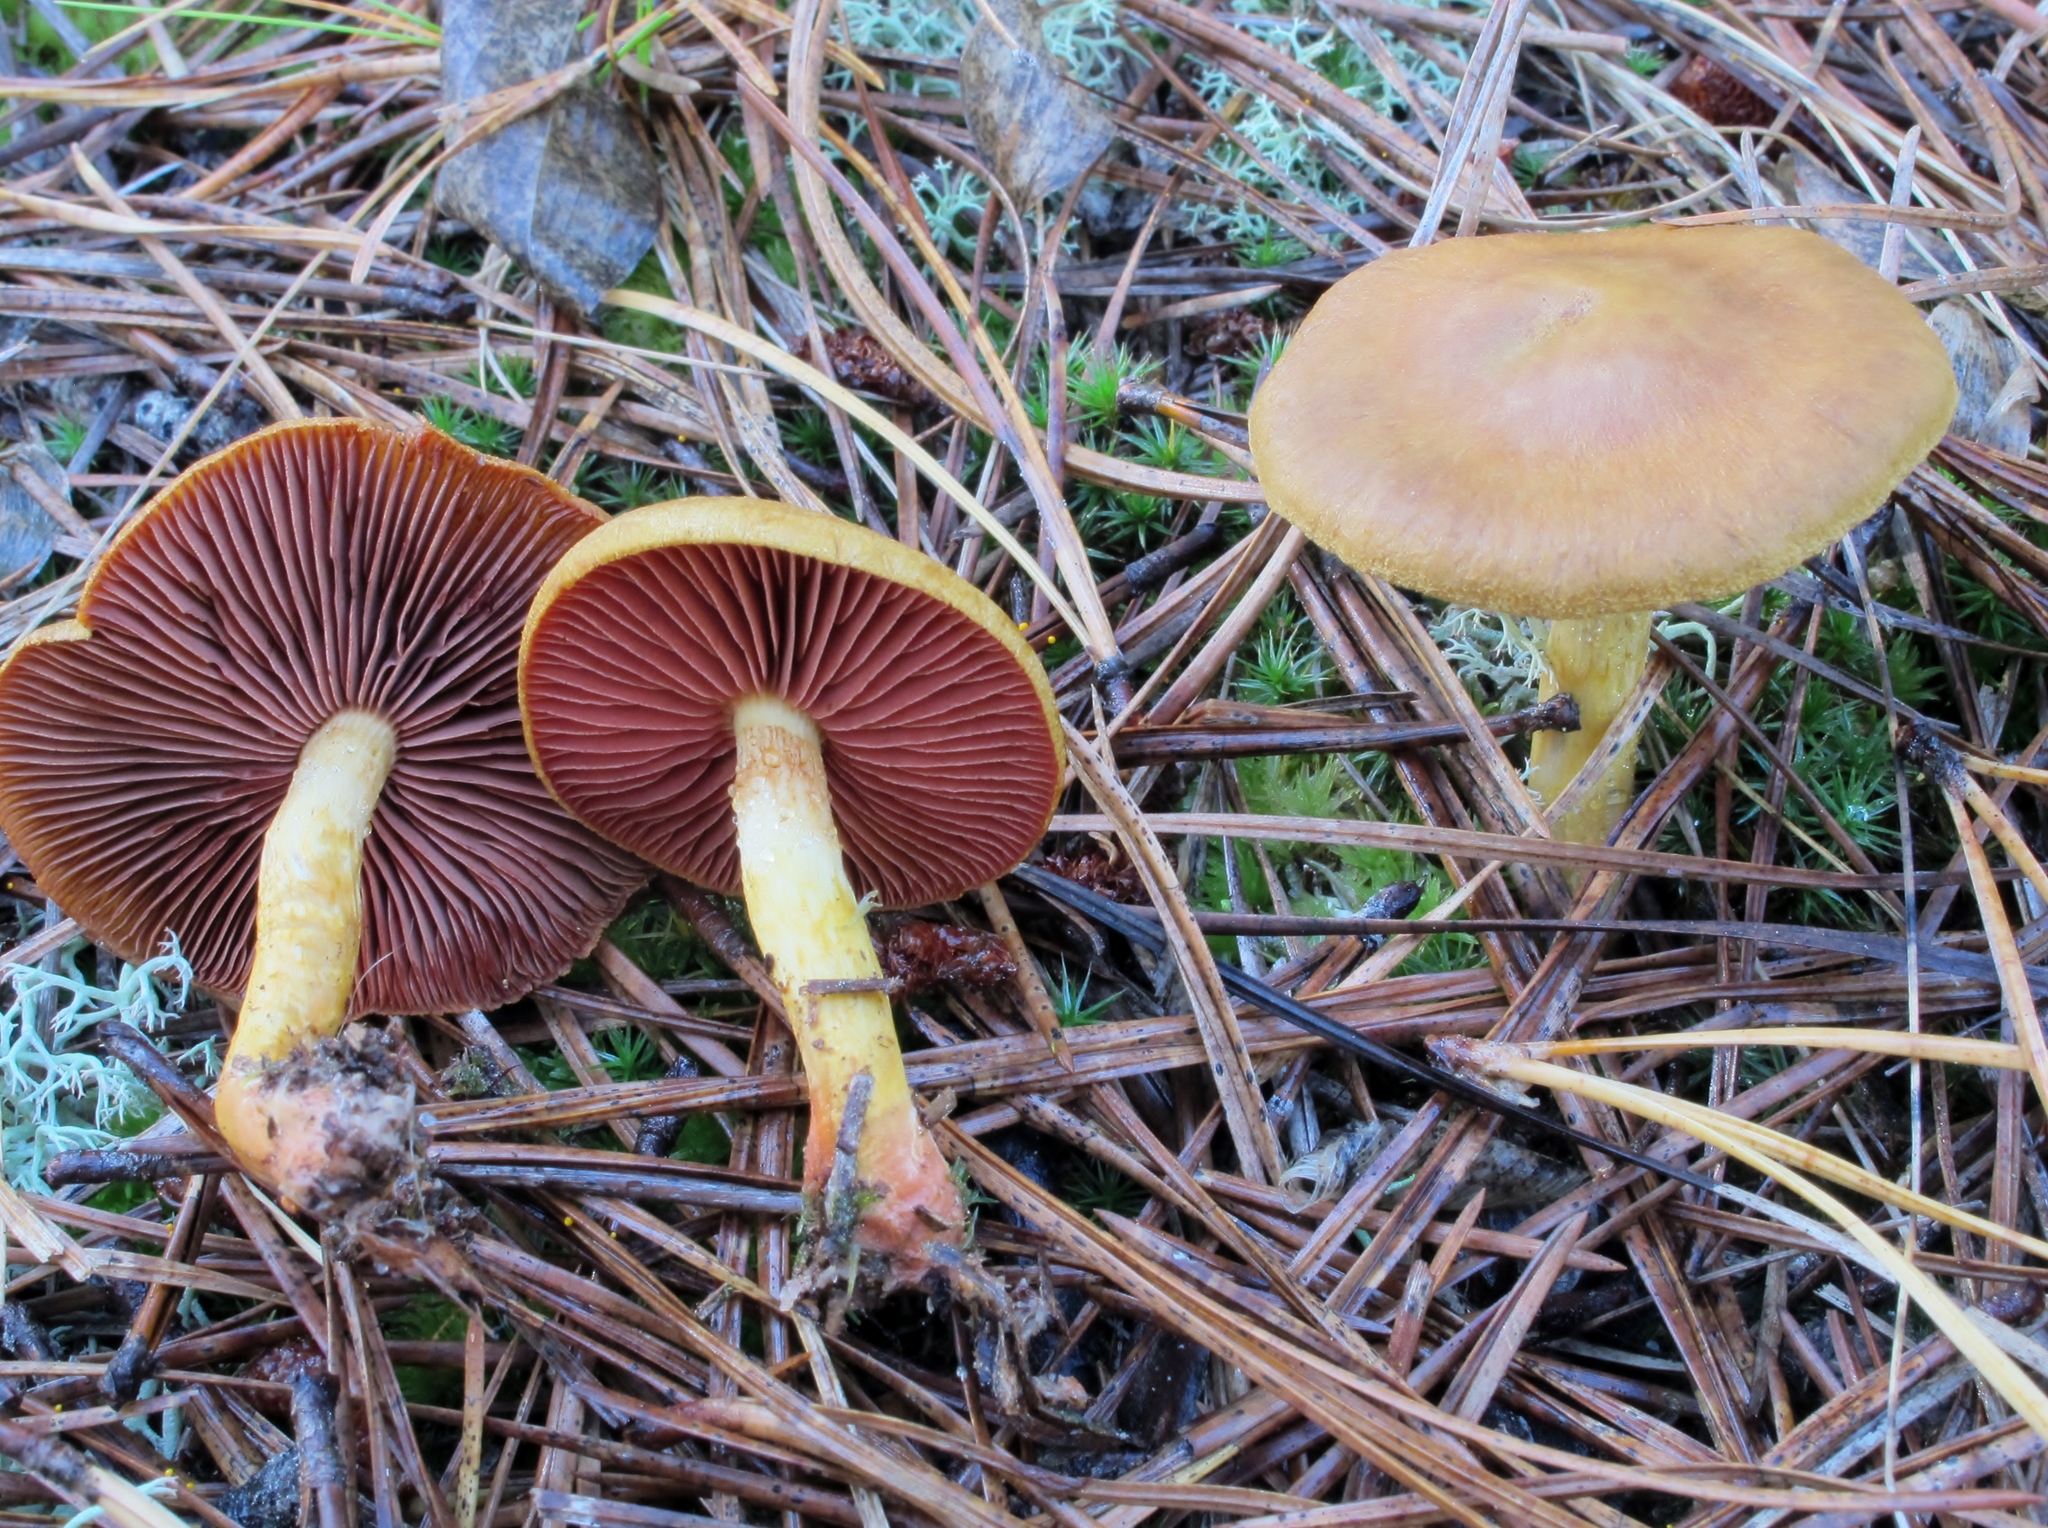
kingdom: Fungi
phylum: Basidiomycota
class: Agaricomycetes
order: Agaricales
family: Cortinariaceae
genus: Cortinarius
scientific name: Cortinarius semisanguineus
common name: Surprise webcap
